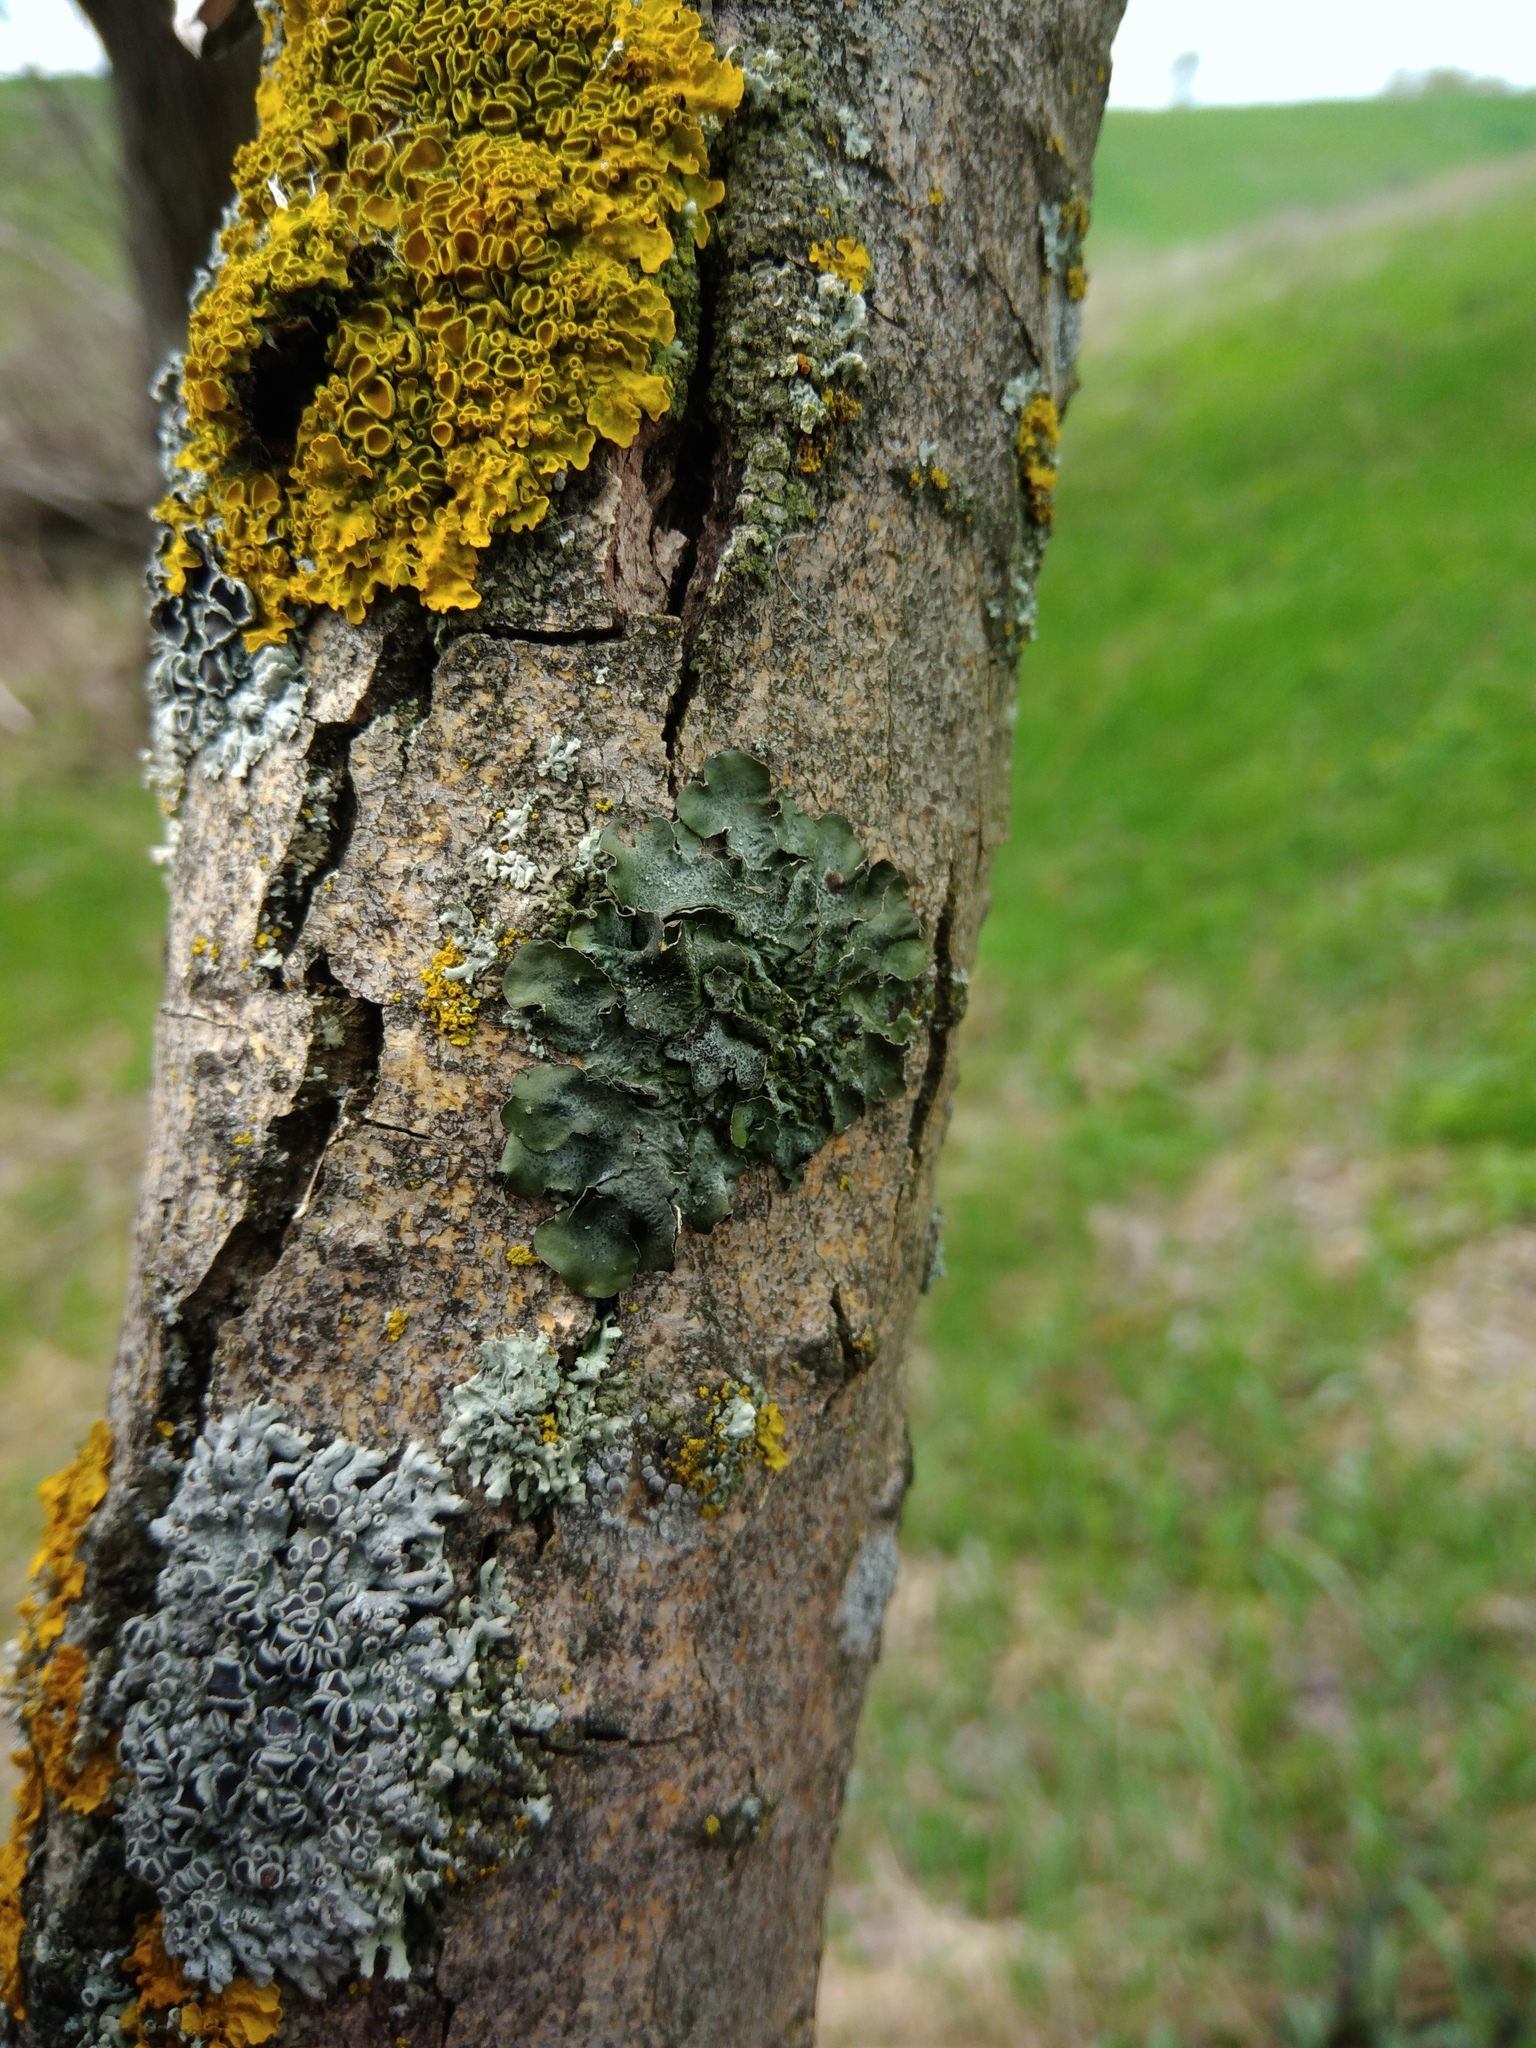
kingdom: Fungi
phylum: Ascomycota
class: Lecanoromycetes
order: Lecanorales
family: Parmeliaceae
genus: Pleurosticta
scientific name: Pleurosticta acetabulum
